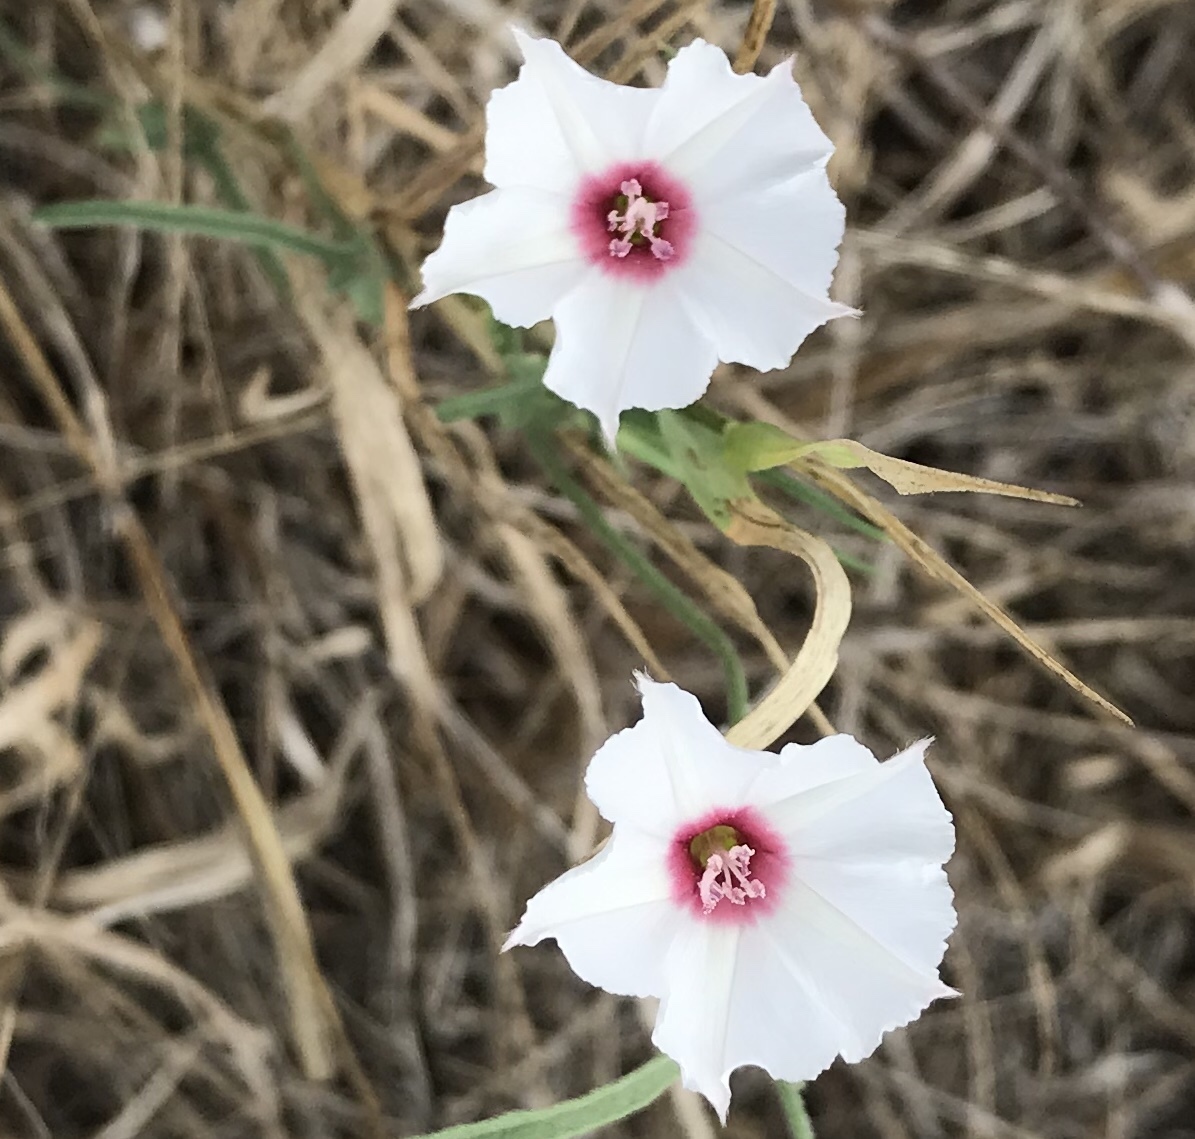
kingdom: Plantae
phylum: Tracheophyta
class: Magnoliopsida
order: Solanales
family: Convolvulaceae
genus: Convolvulus
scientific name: Convolvulus equitans
